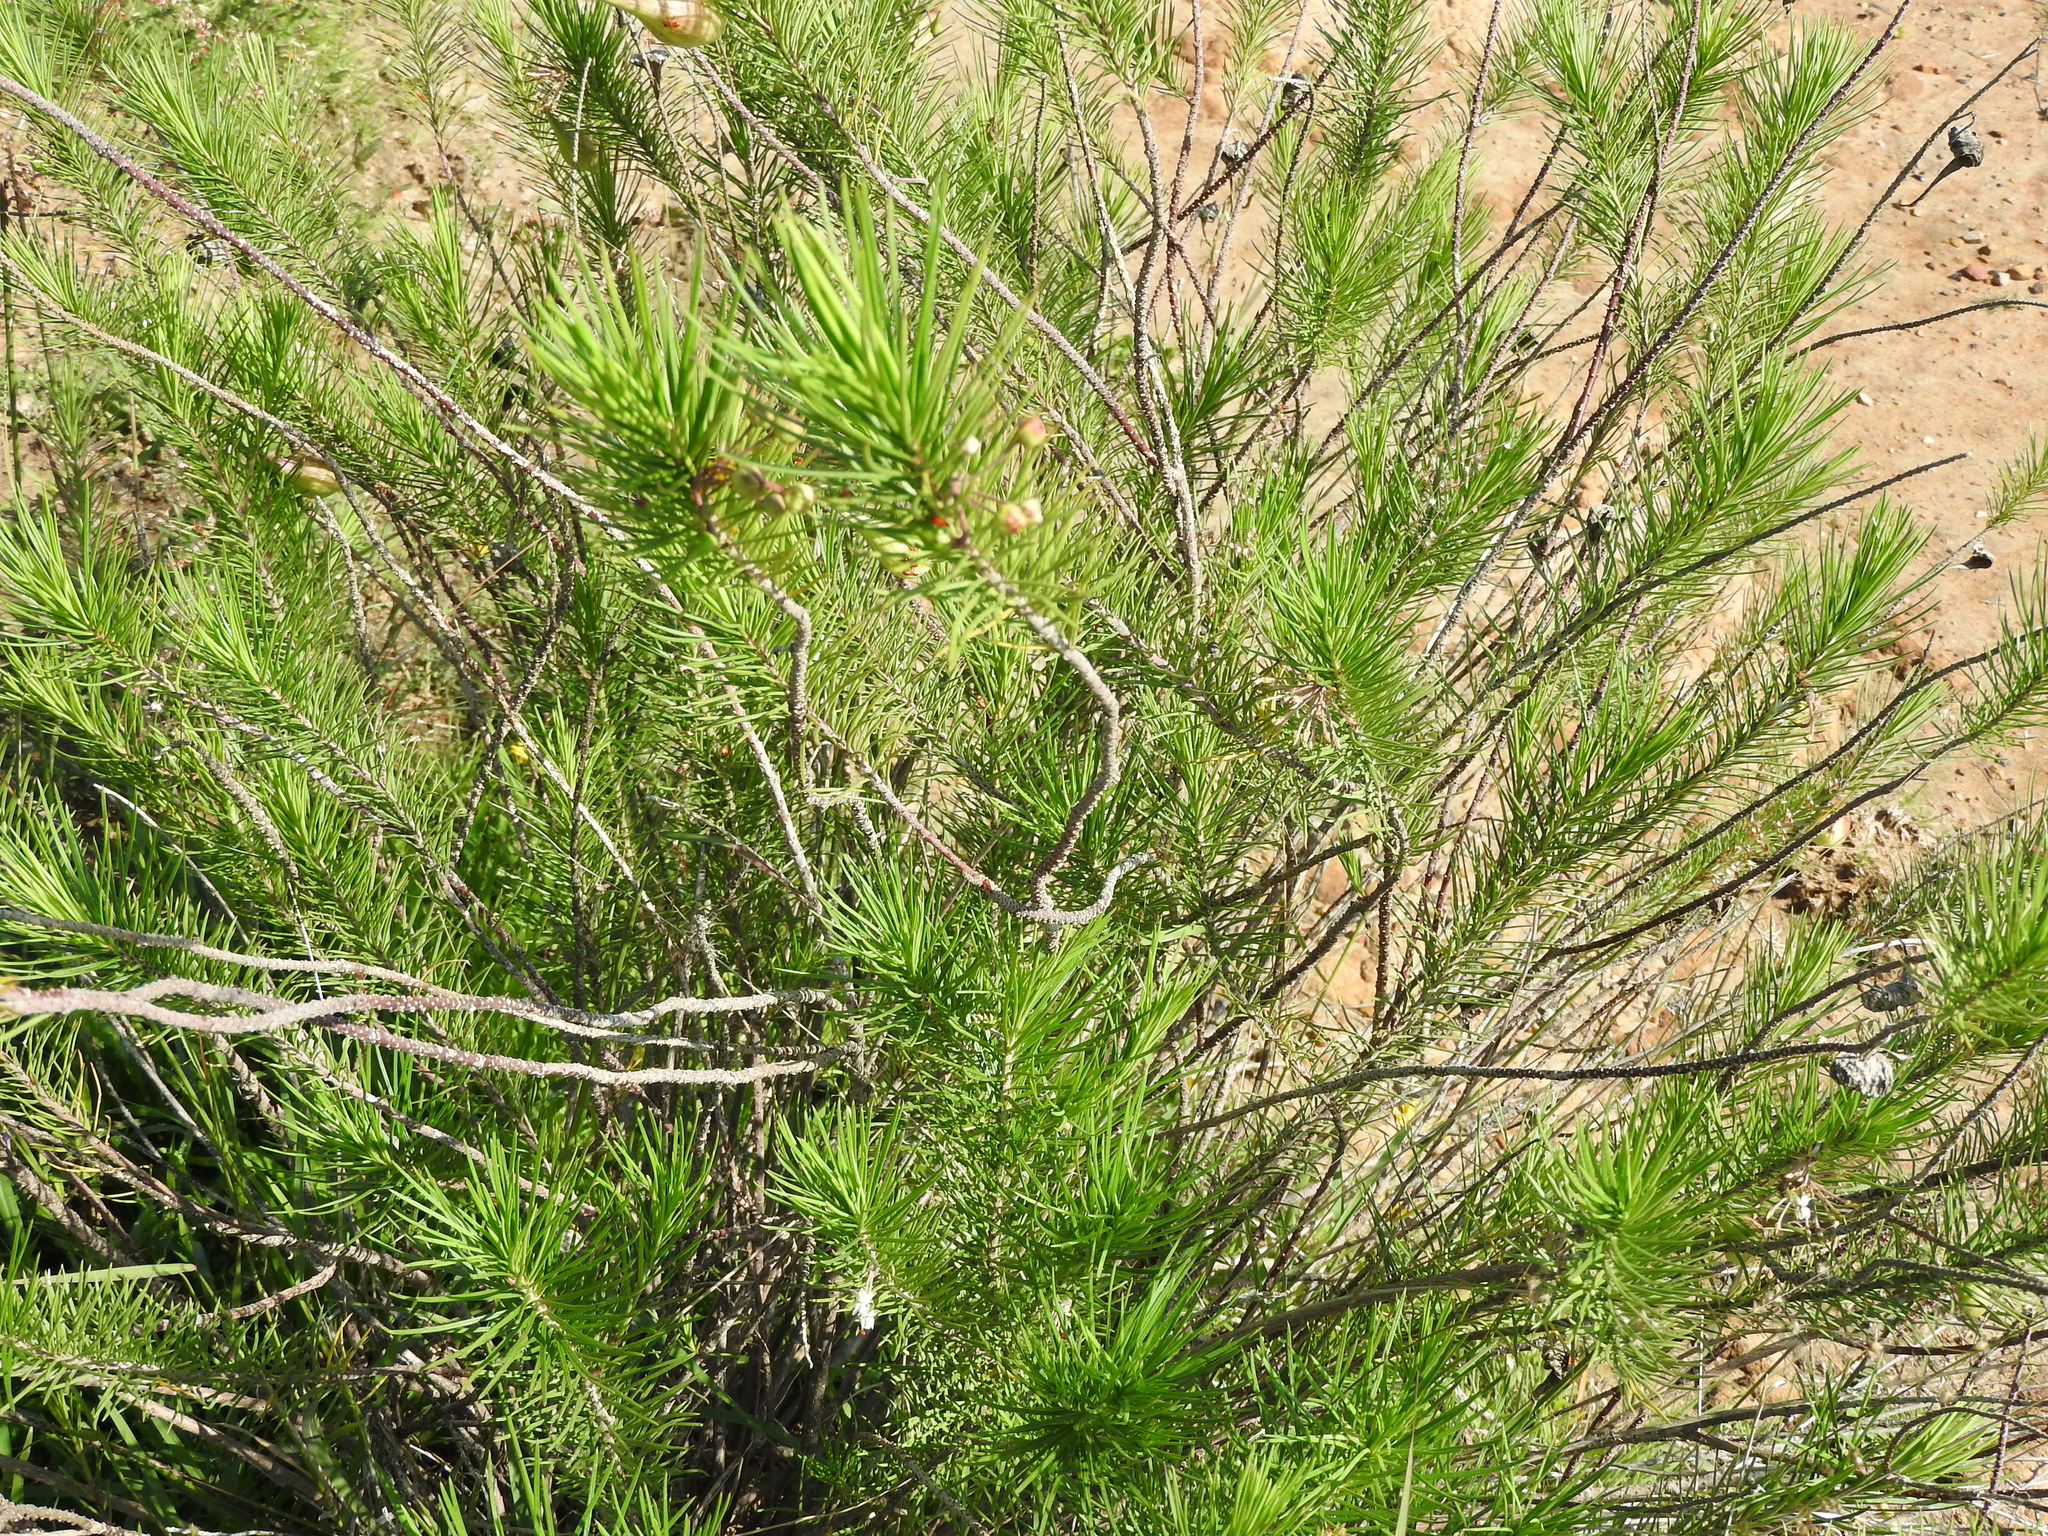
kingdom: Plantae
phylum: Tracheophyta
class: Magnoliopsida
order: Gentianales
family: Apocynaceae
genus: Asclepias
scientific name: Asclepias linaria
